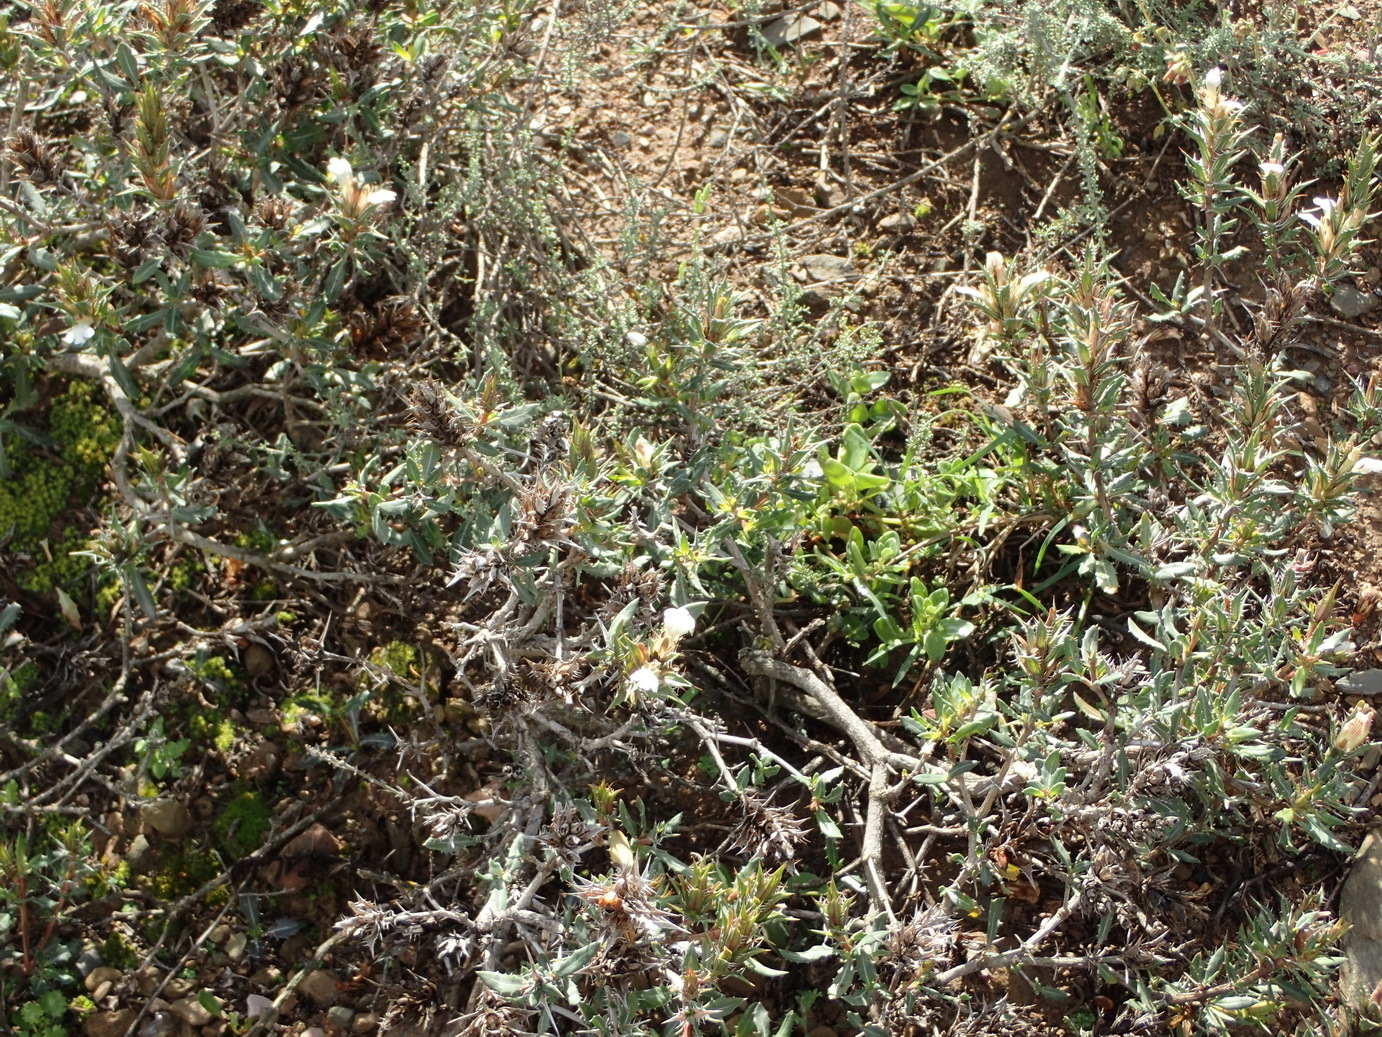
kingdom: Plantae
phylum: Tracheophyta
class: Magnoliopsida
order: Lamiales
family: Acanthaceae
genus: Blepharis
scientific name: Blepharis capensis
